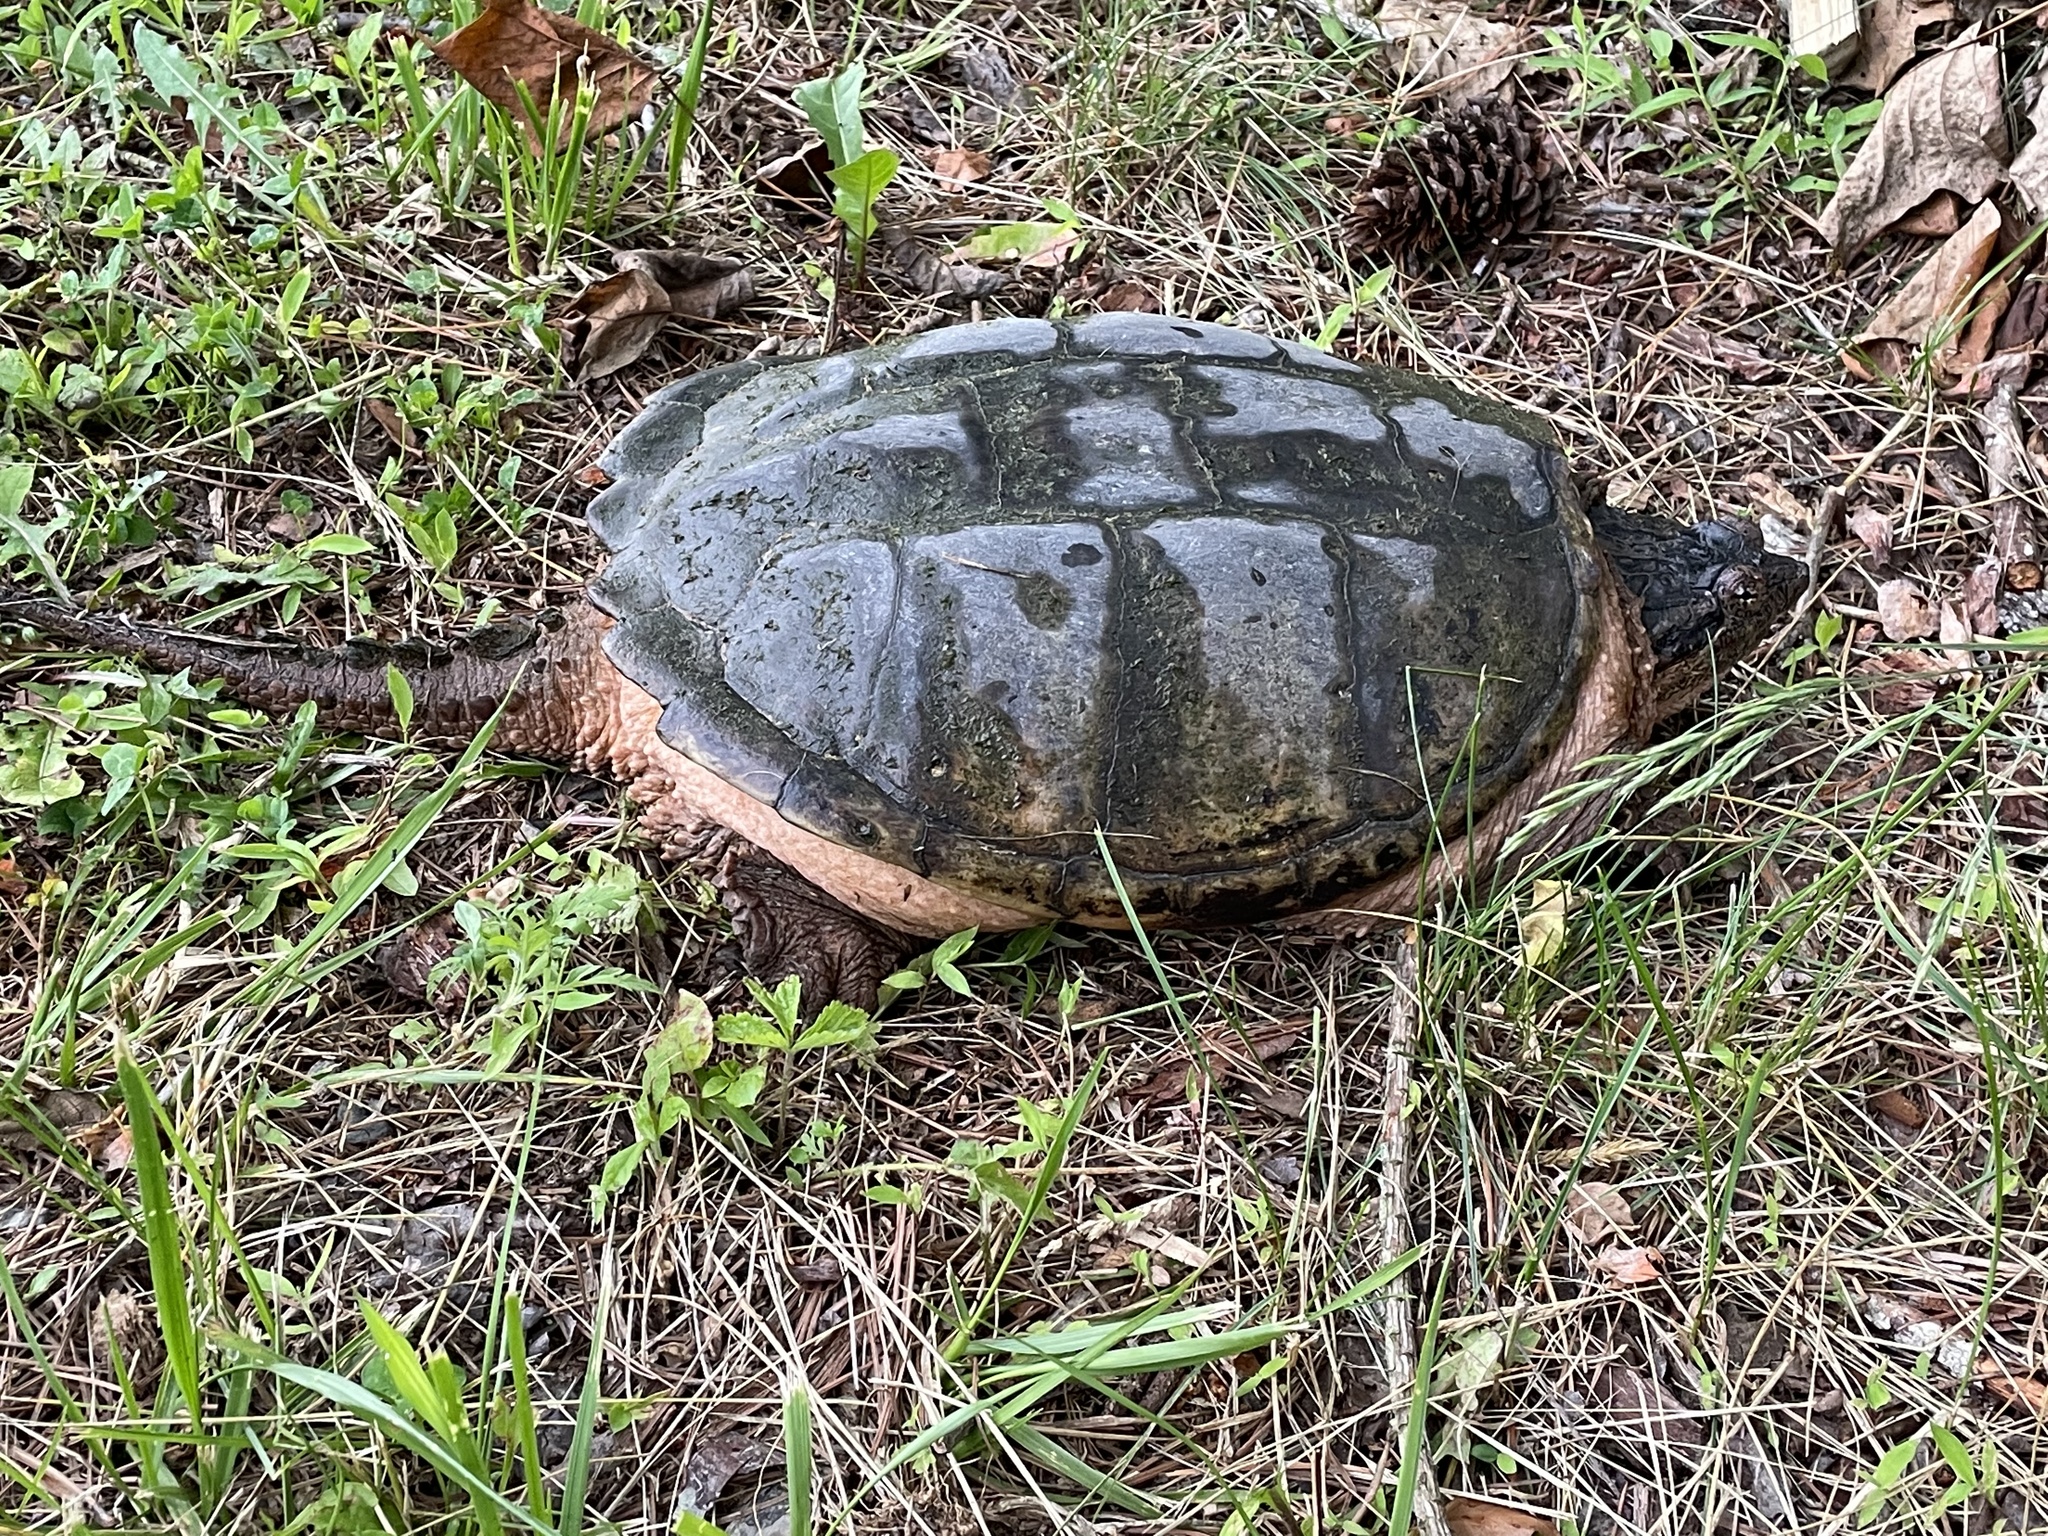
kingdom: Animalia
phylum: Chordata
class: Testudines
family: Chelydridae
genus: Chelydra
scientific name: Chelydra serpentina
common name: Common snapping turtle
